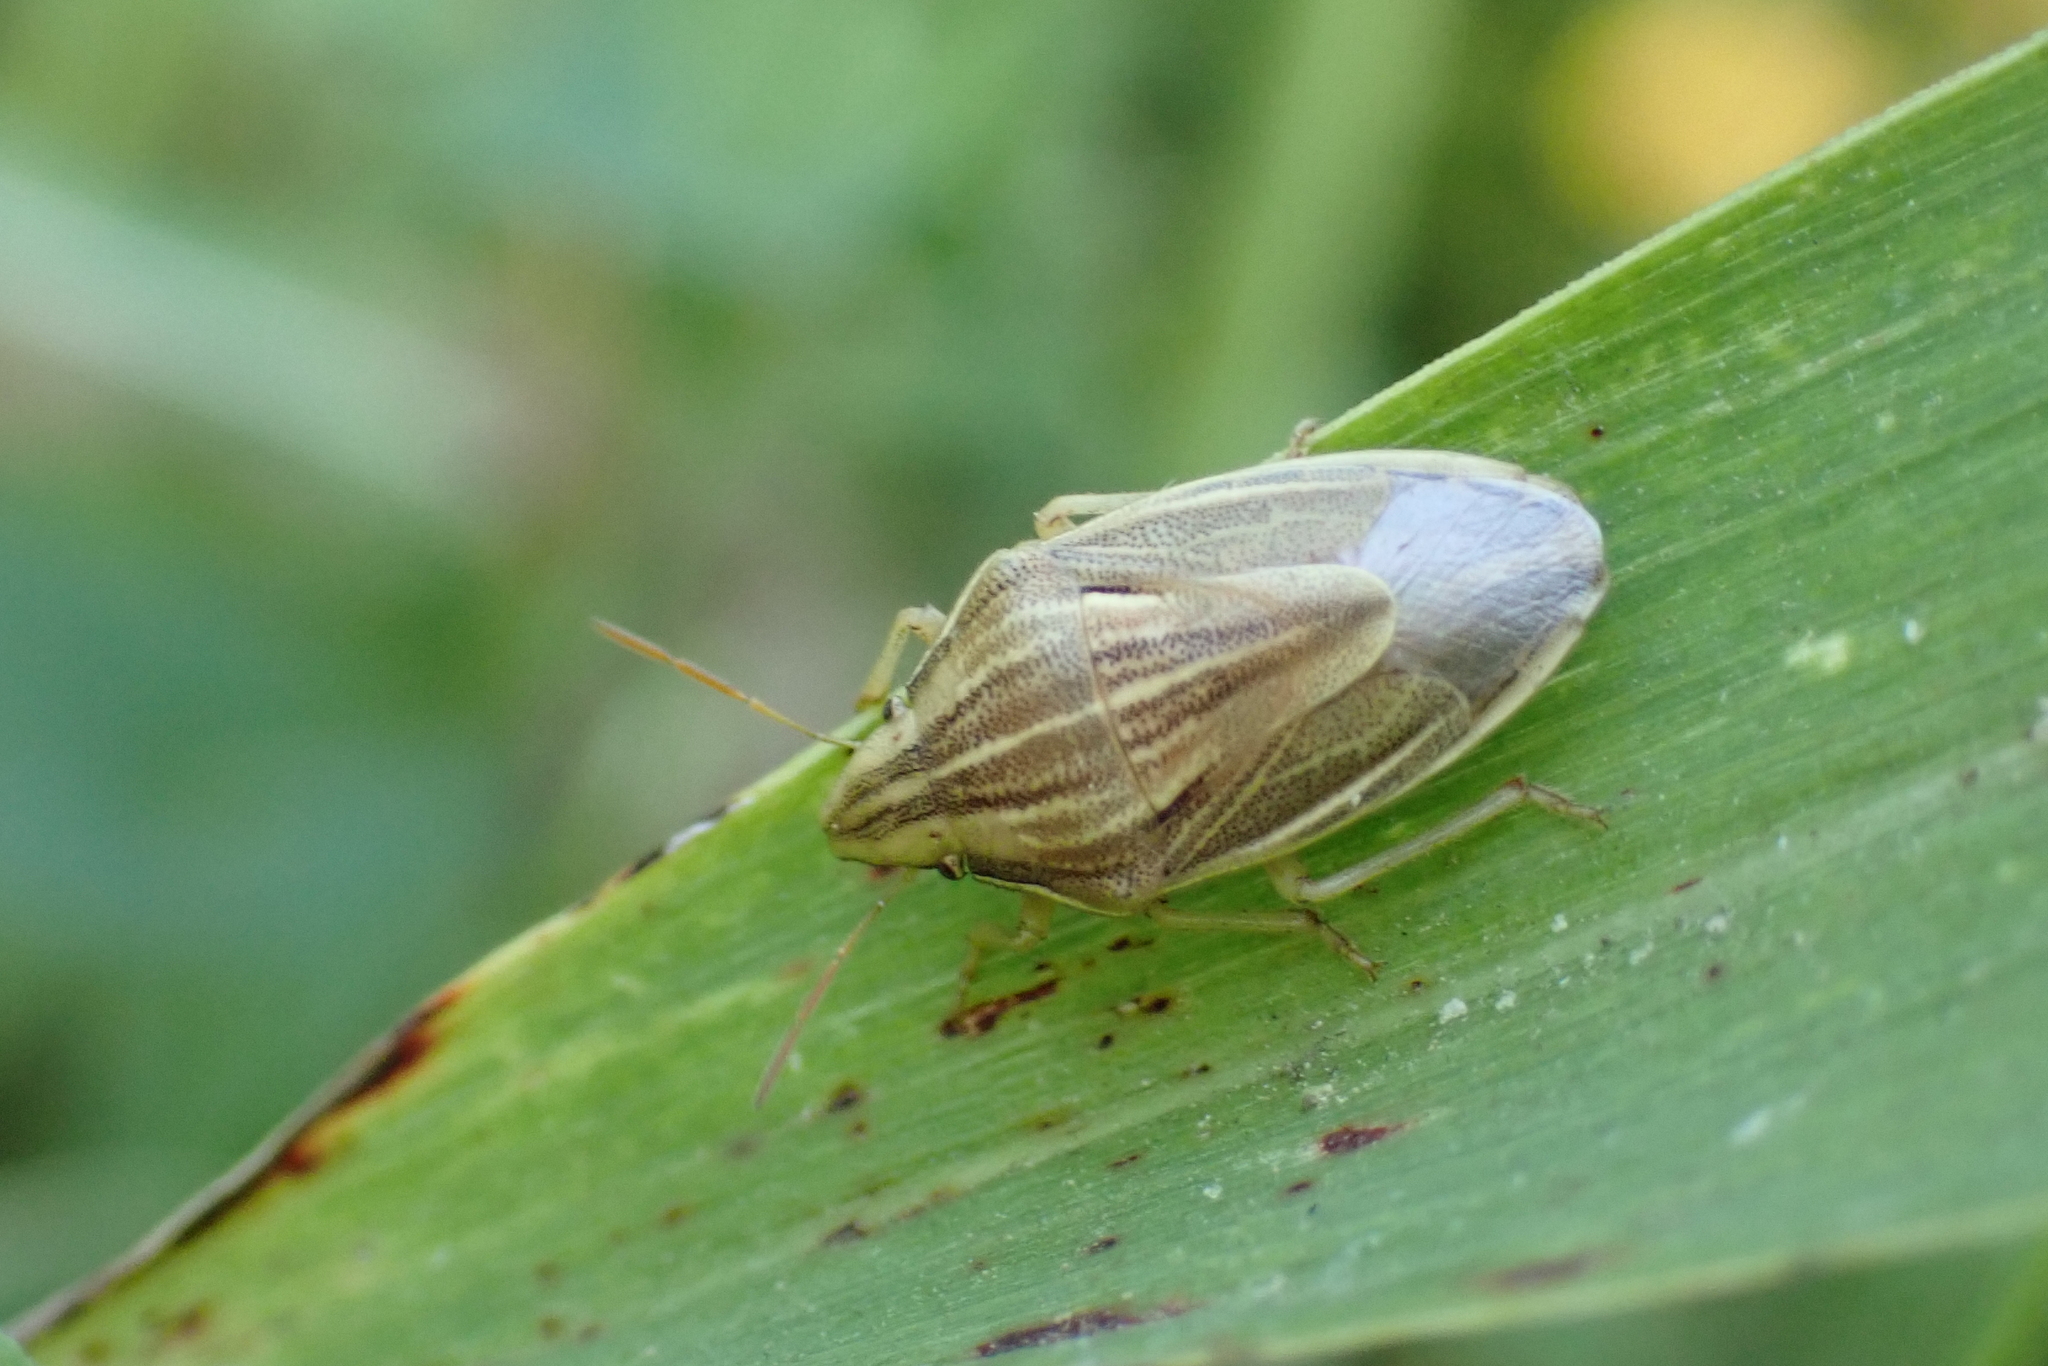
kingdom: Animalia
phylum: Arthropoda
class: Insecta
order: Hemiptera
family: Pentatomidae
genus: Aelia
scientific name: Aelia acuminata
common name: Bishop's mitre
